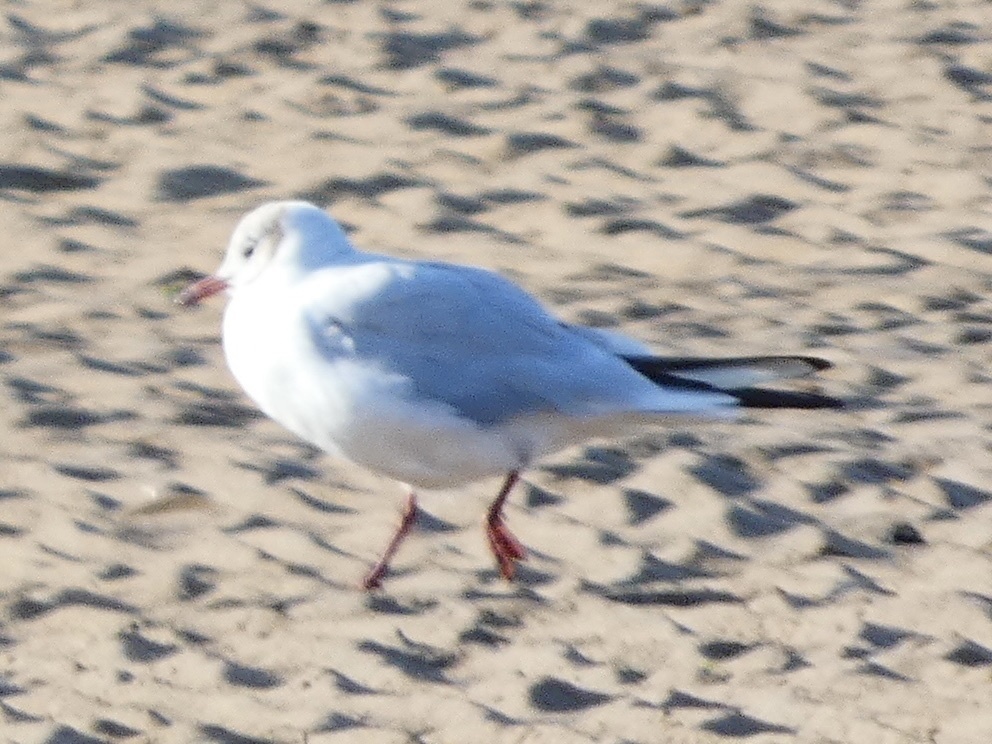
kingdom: Animalia
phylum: Chordata
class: Aves
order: Charadriiformes
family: Laridae
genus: Chroicocephalus
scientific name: Chroicocephalus ridibundus
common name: Black-headed gull
